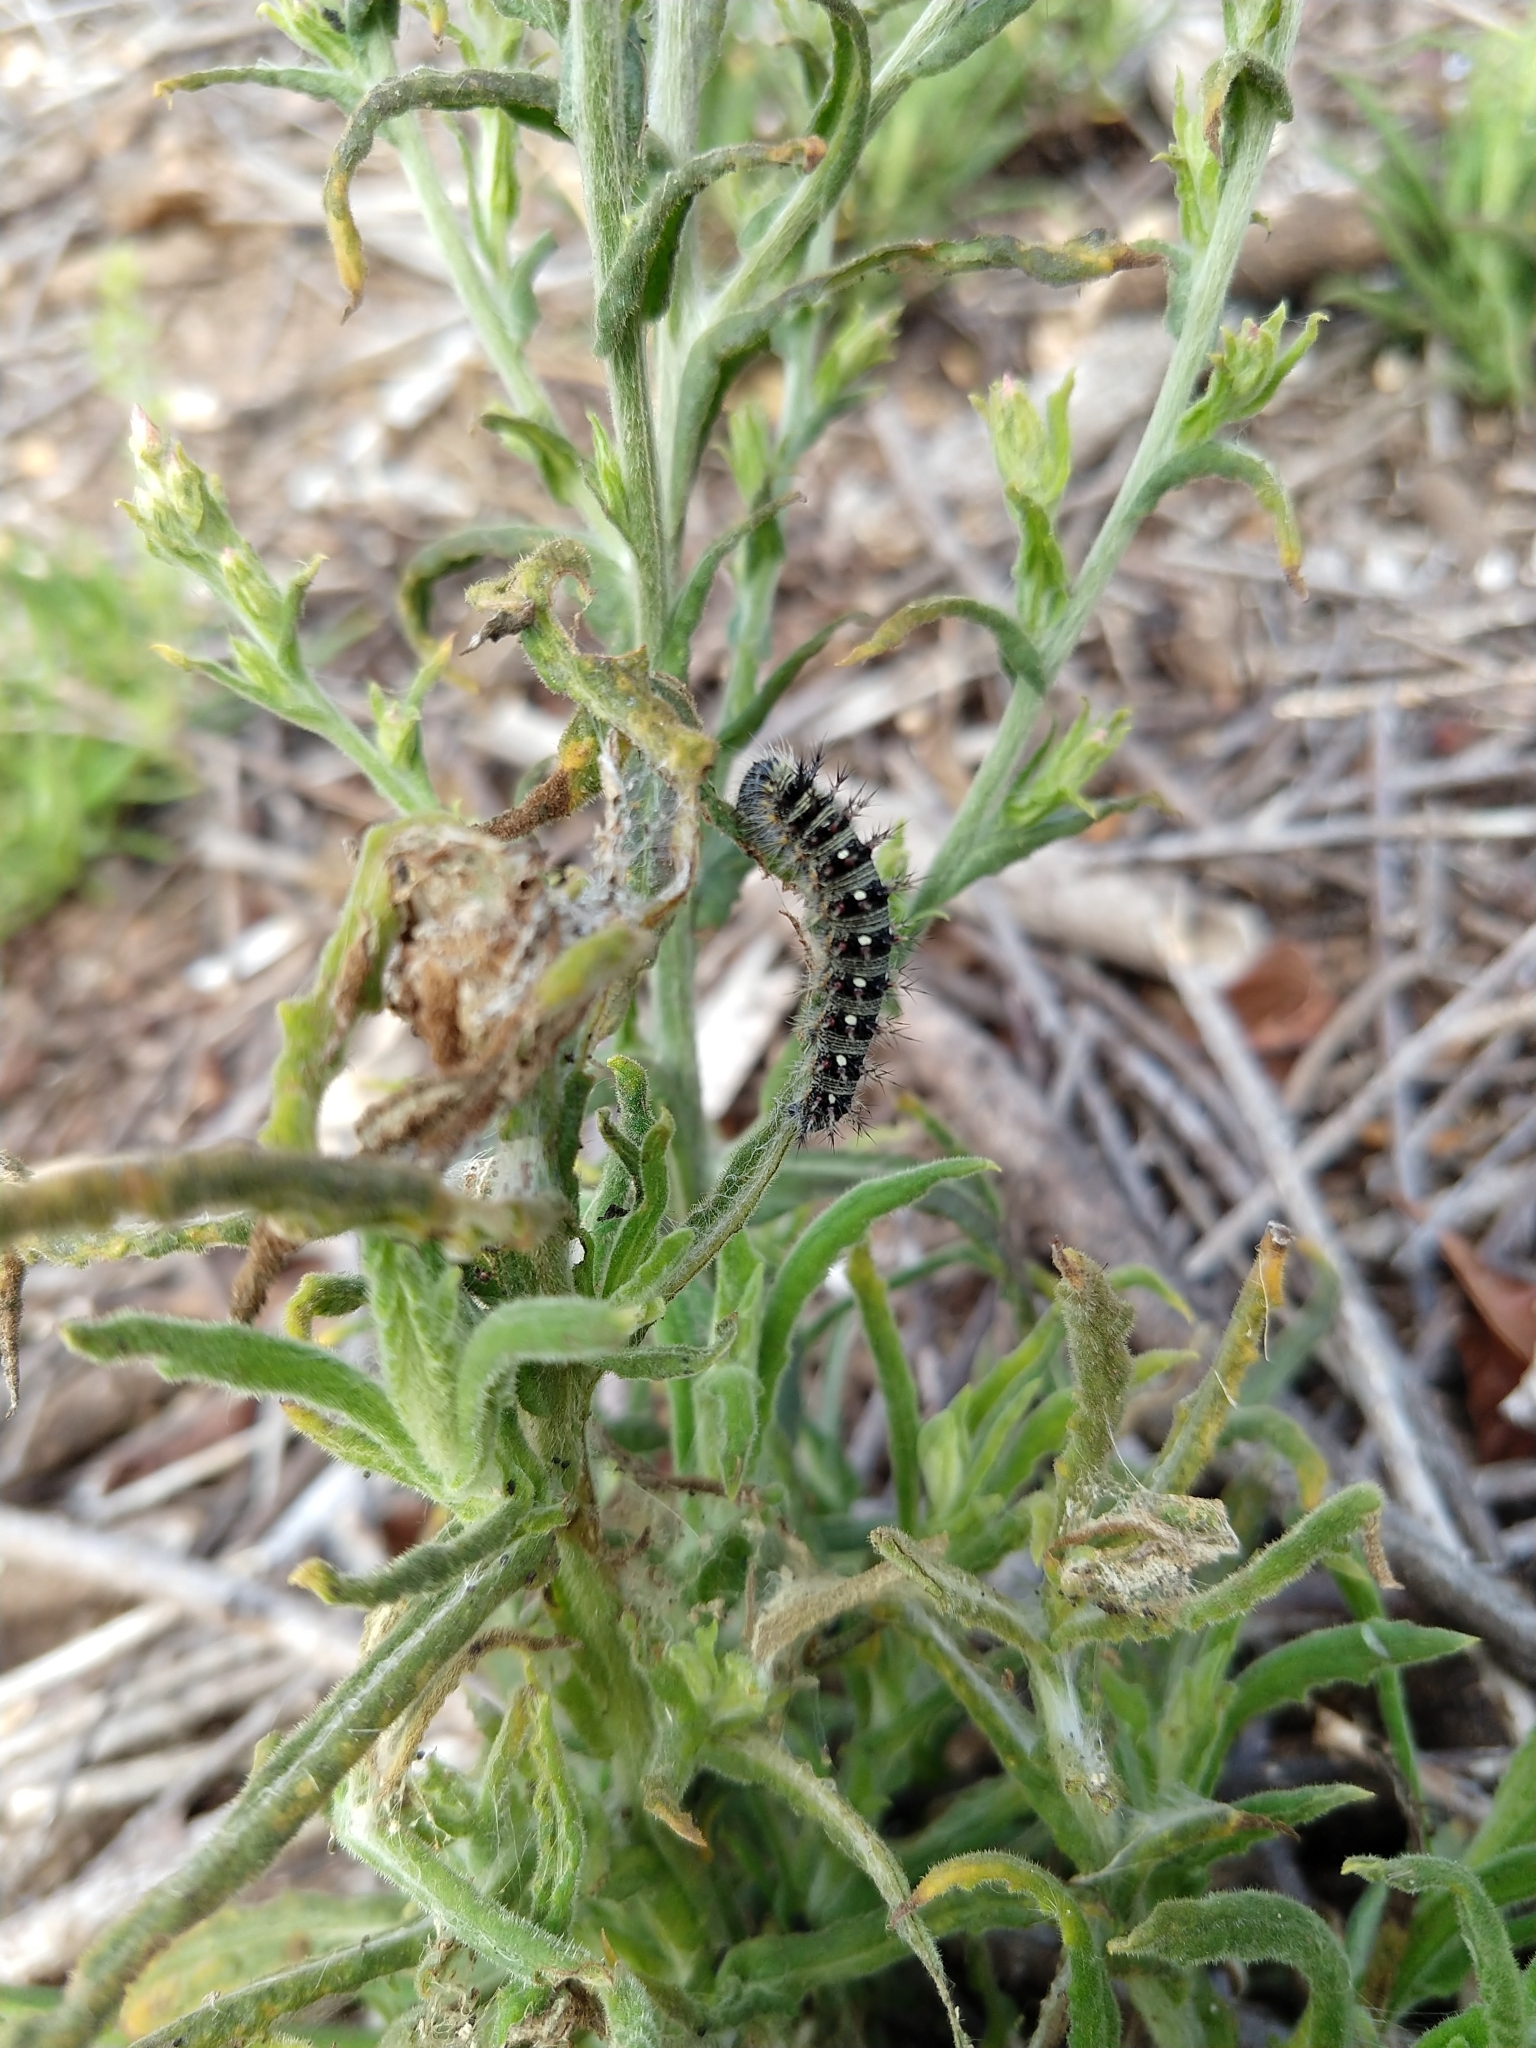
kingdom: Animalia
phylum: Arthropoda
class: Insecta
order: Lepidoptera
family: Nymphalidae
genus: Vanessa
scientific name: Vanessa virginiensis
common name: American lady
